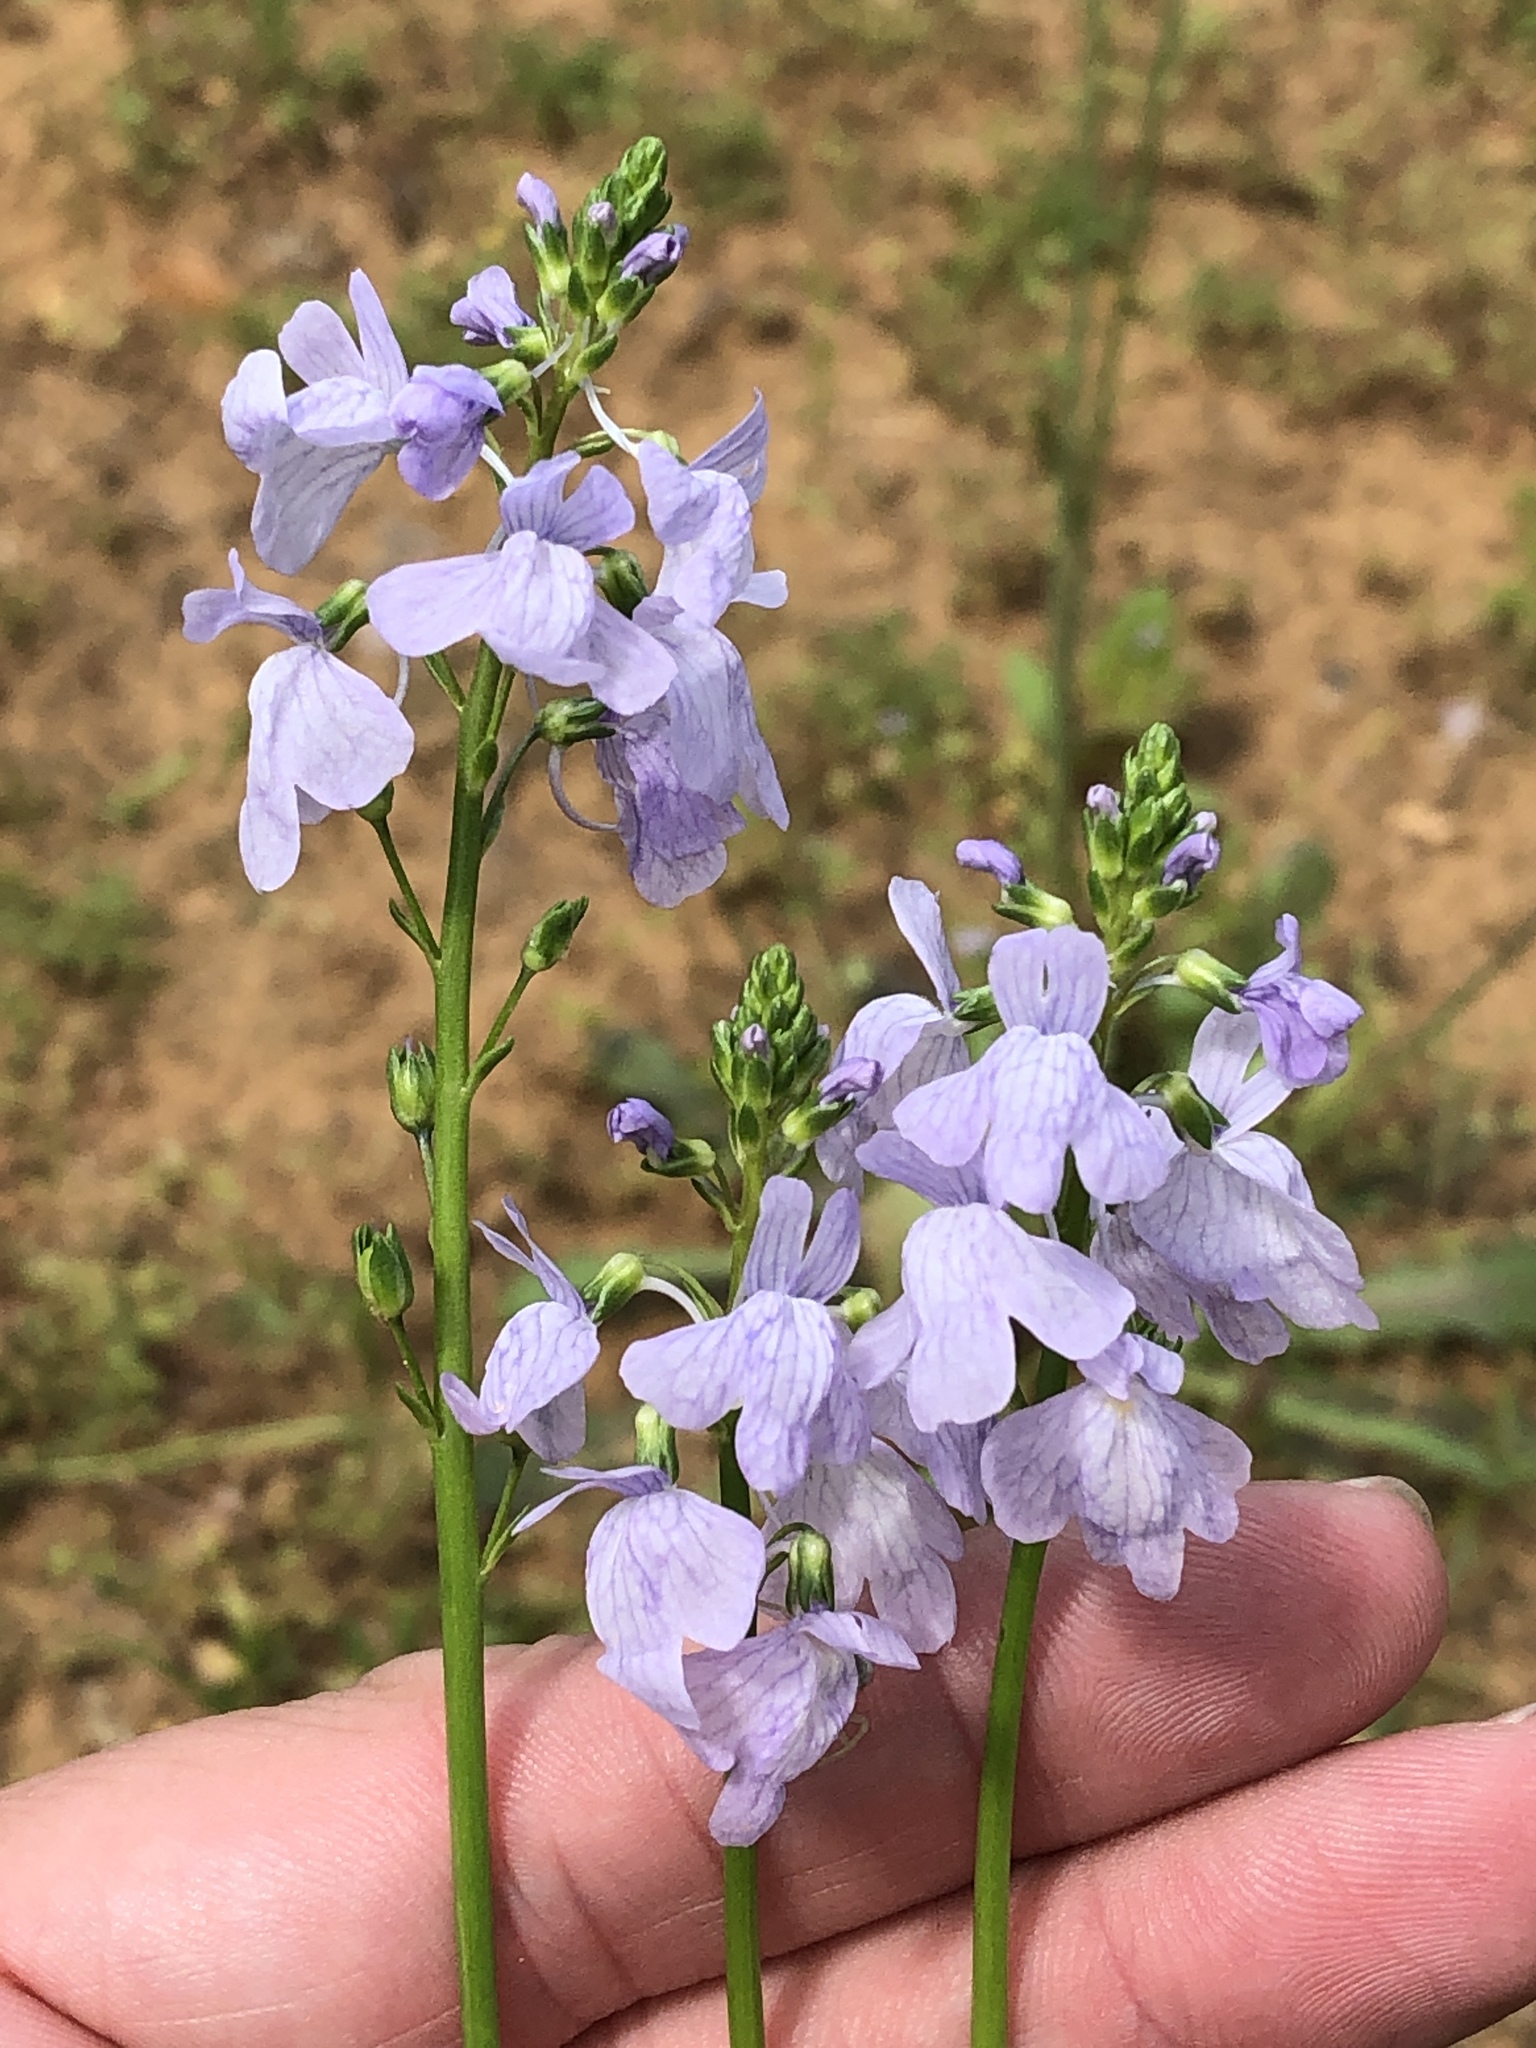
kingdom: Plantae
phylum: Tracheophyta
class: Magnoliopsida
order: Lamiales
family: Plantaginaceae
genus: Nuttallanthus
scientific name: Nuttallanthus texanus
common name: Texas toadflax
